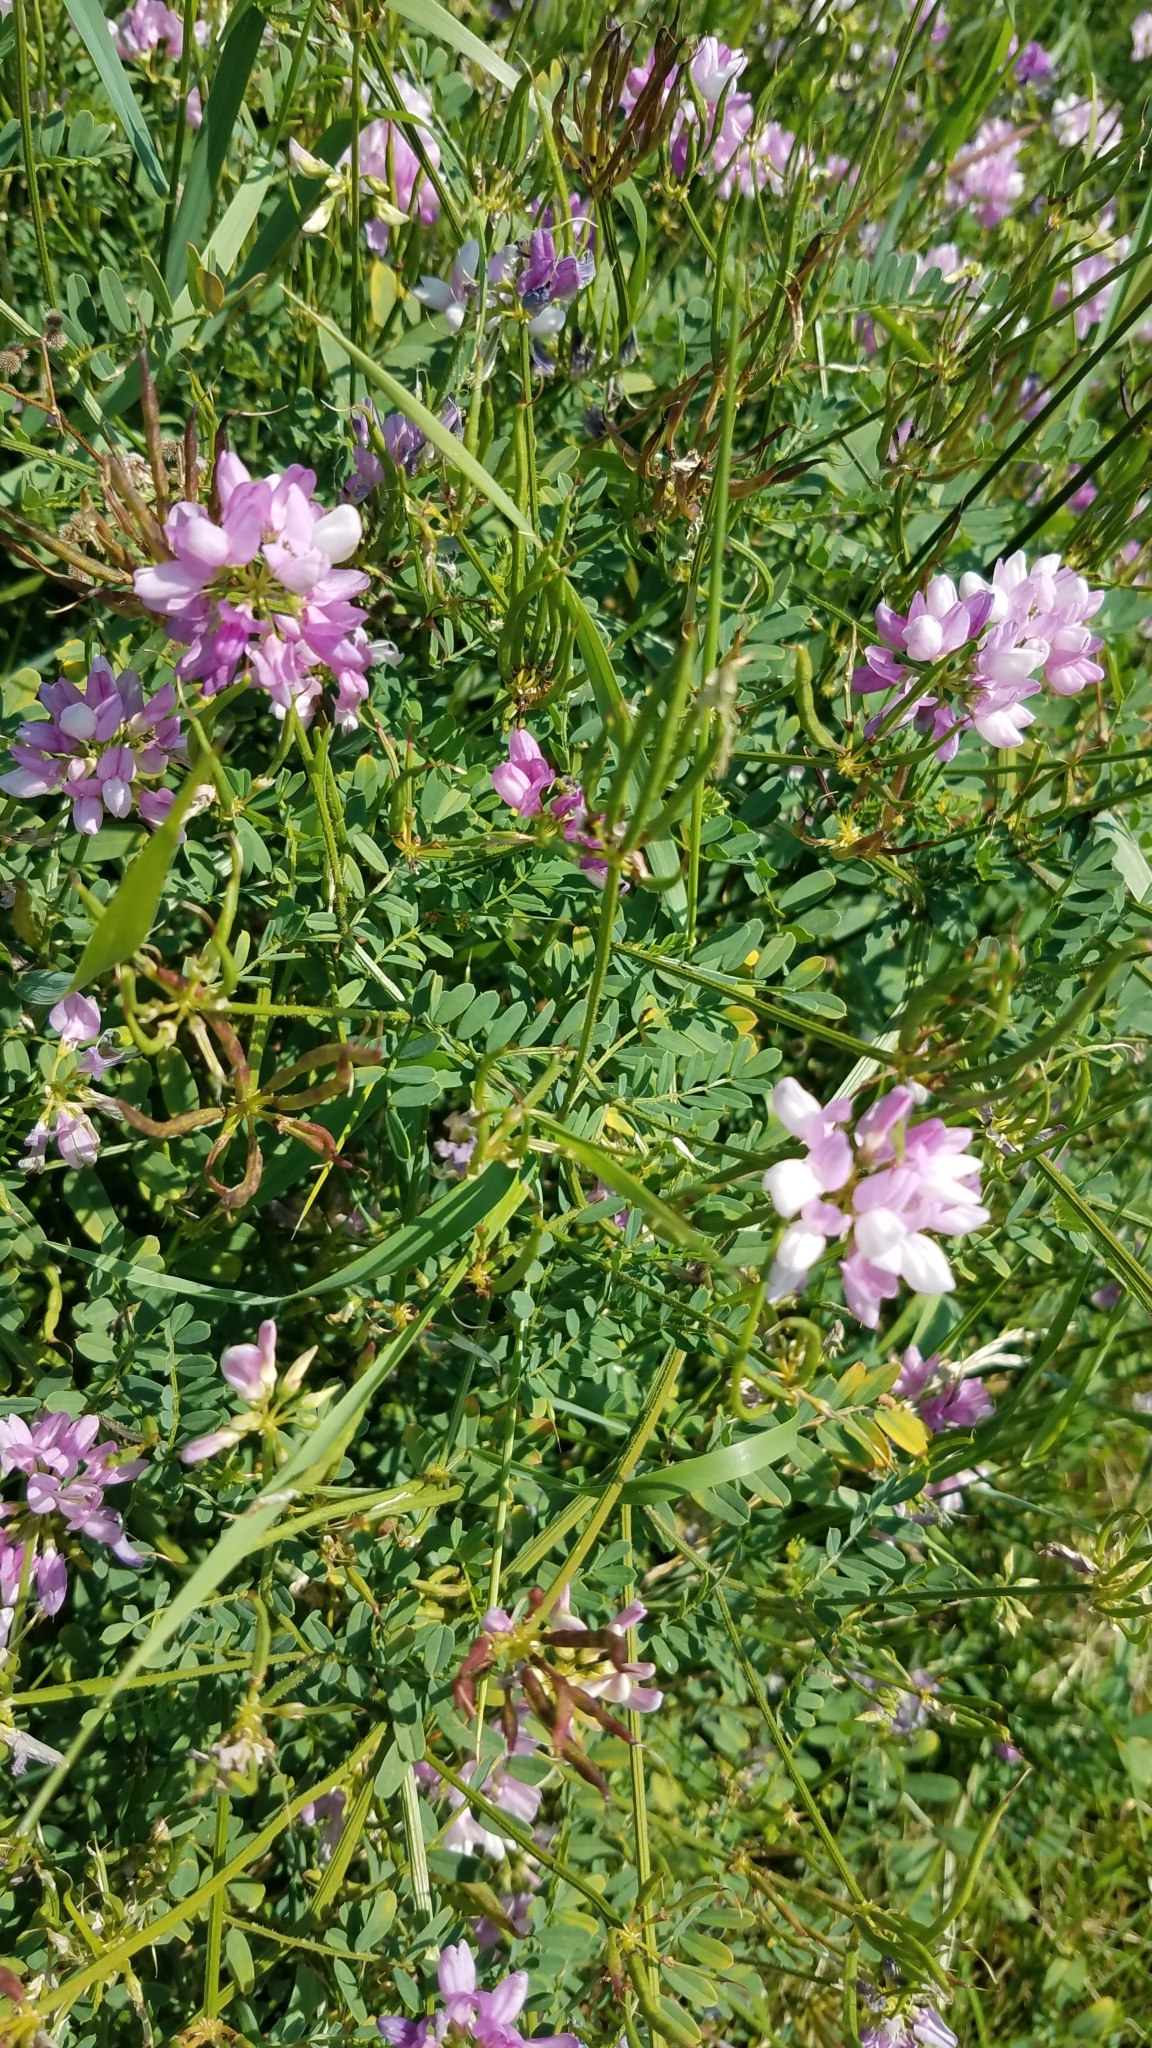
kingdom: Plantae
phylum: Tracheophyta
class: Magnoliopsida
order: Fabales
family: Fabaceae
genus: Coronilla
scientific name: Coronilla varia
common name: Crownvetch
